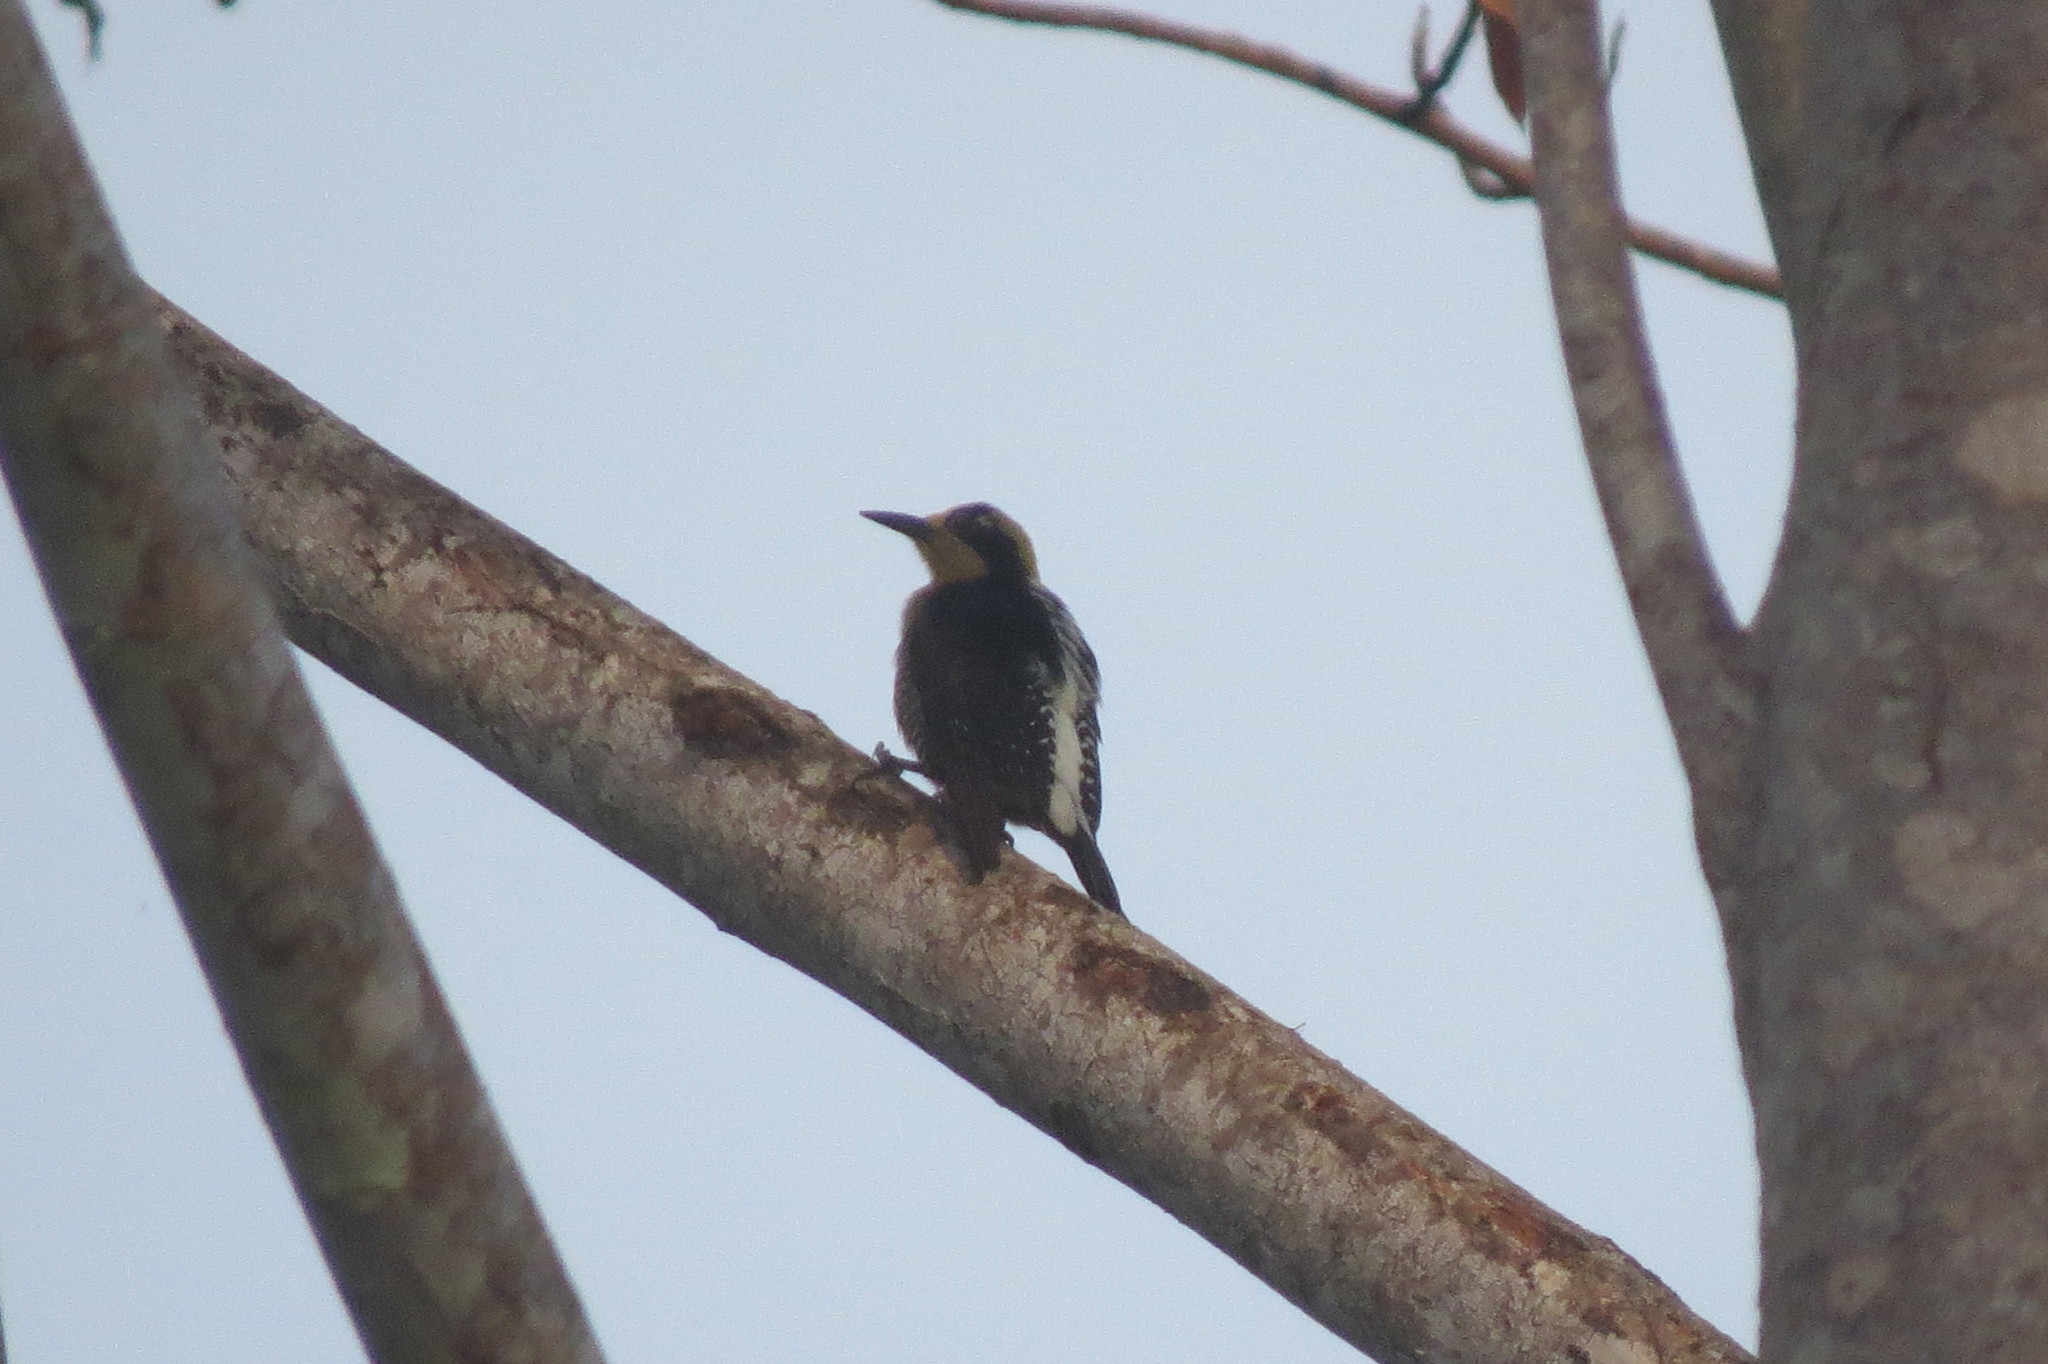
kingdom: Animalia
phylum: Chordata
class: Aves
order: Piciformes
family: Picidae
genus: Melanerpes
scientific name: Melanerpes chrysauchen
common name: Golden-naped woodpecker
